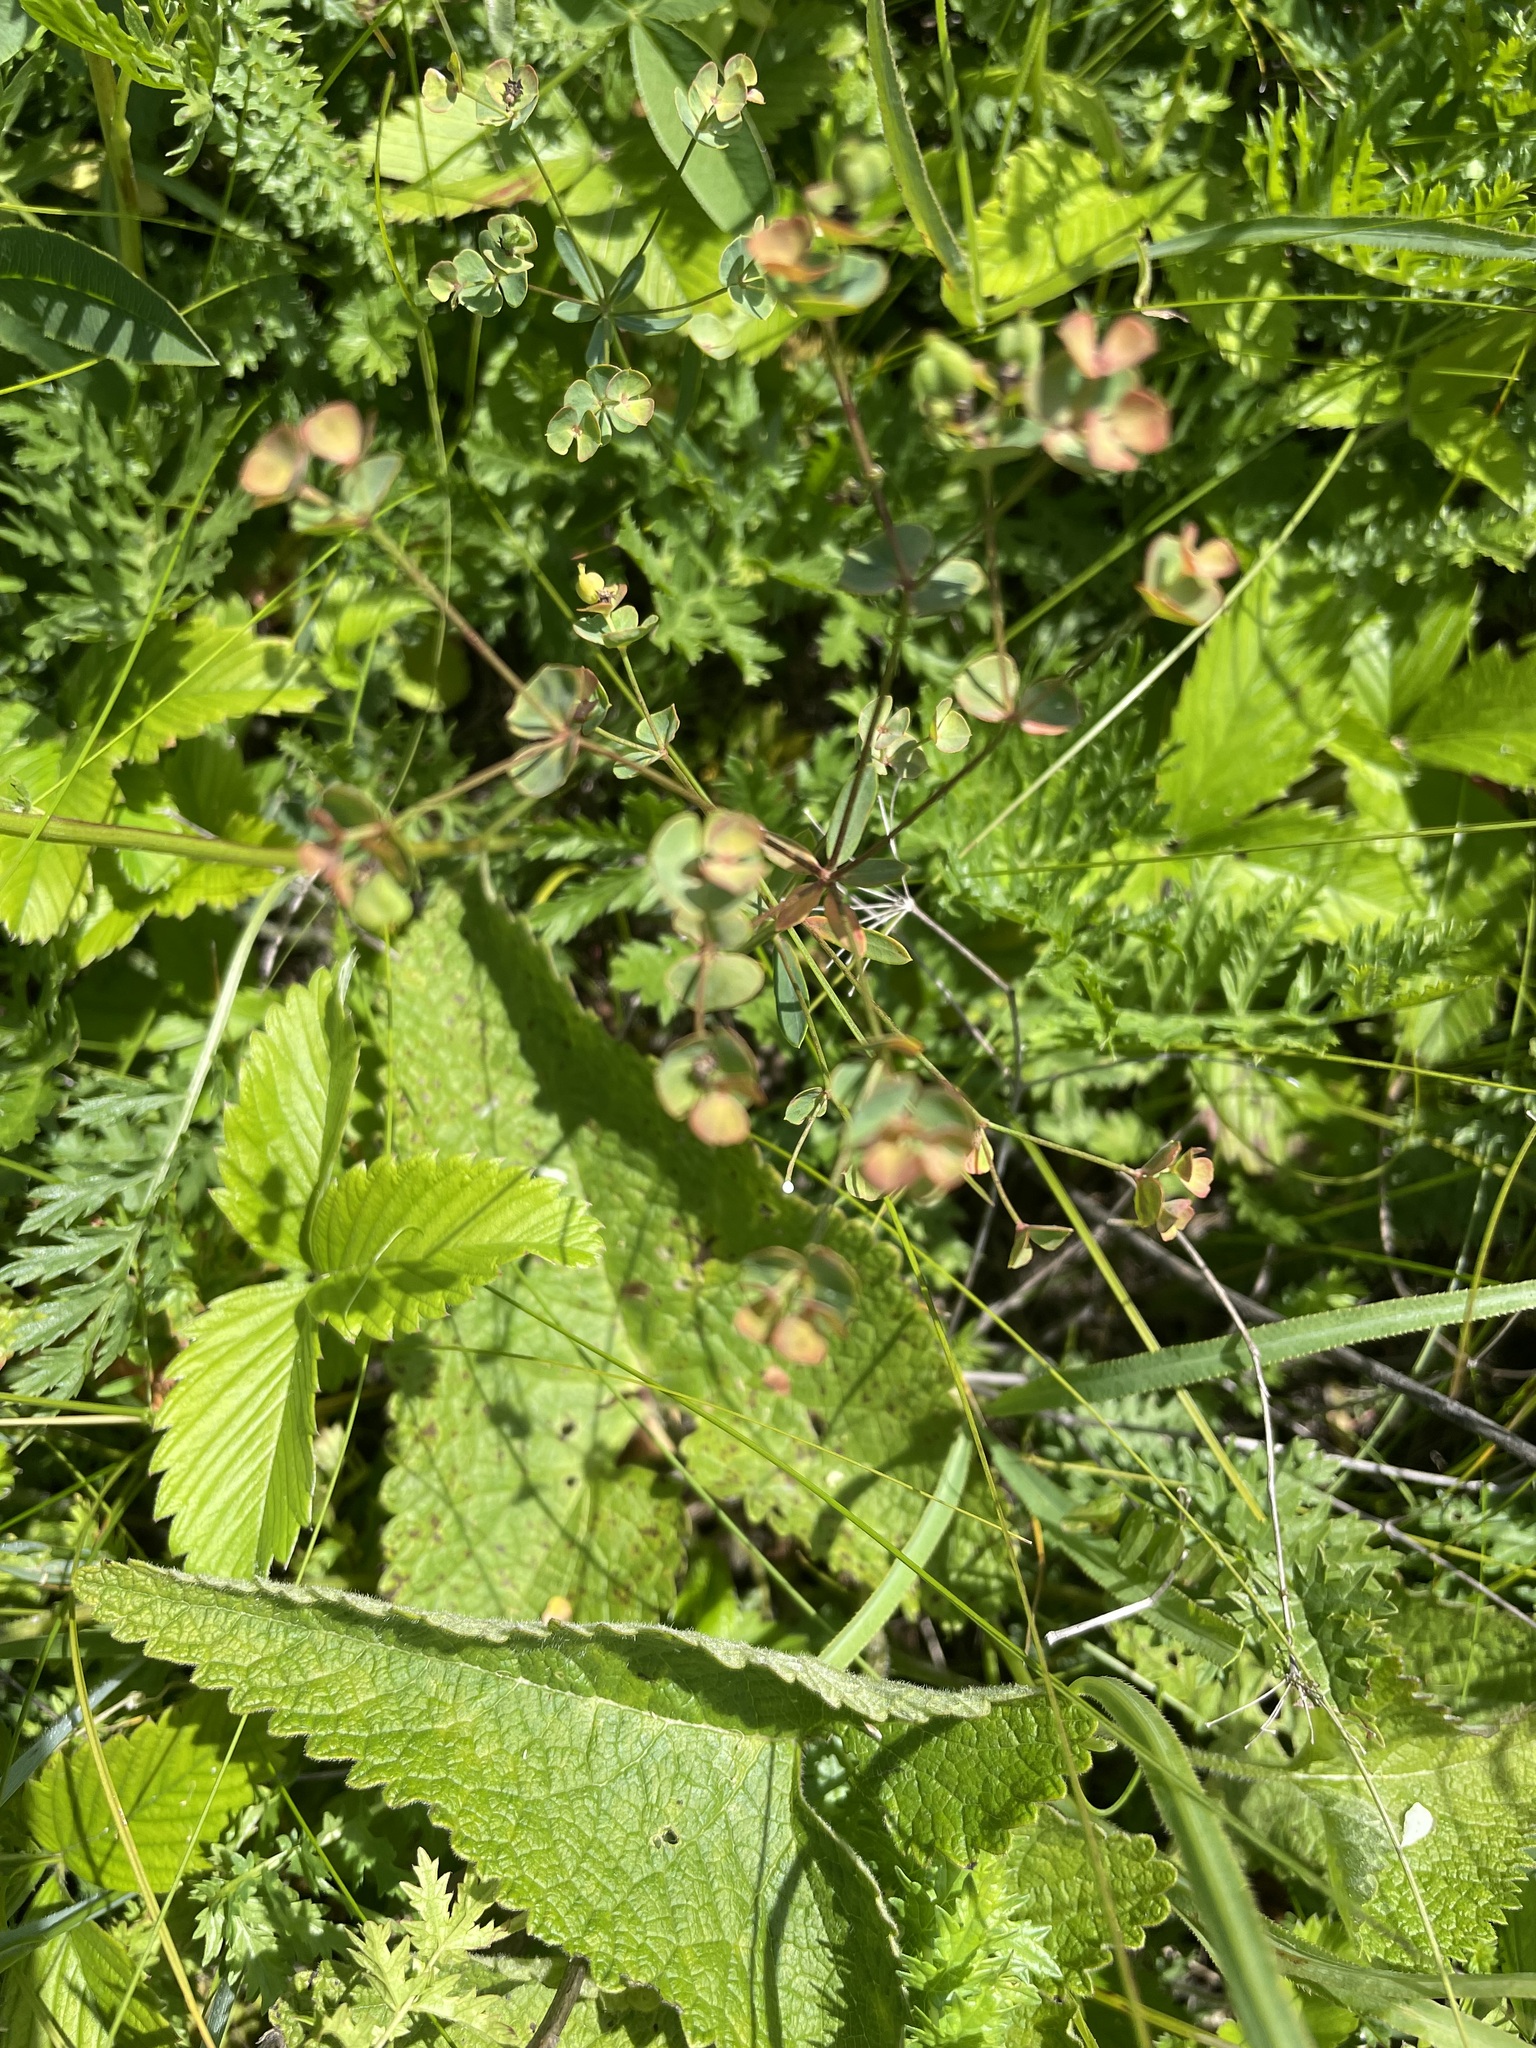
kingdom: Plantae
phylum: Tracheophyta
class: Magnoliopsida
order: Malpighiales
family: Euphorbiaceae
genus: Euphorbia
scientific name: Euphorbia microcarpa
